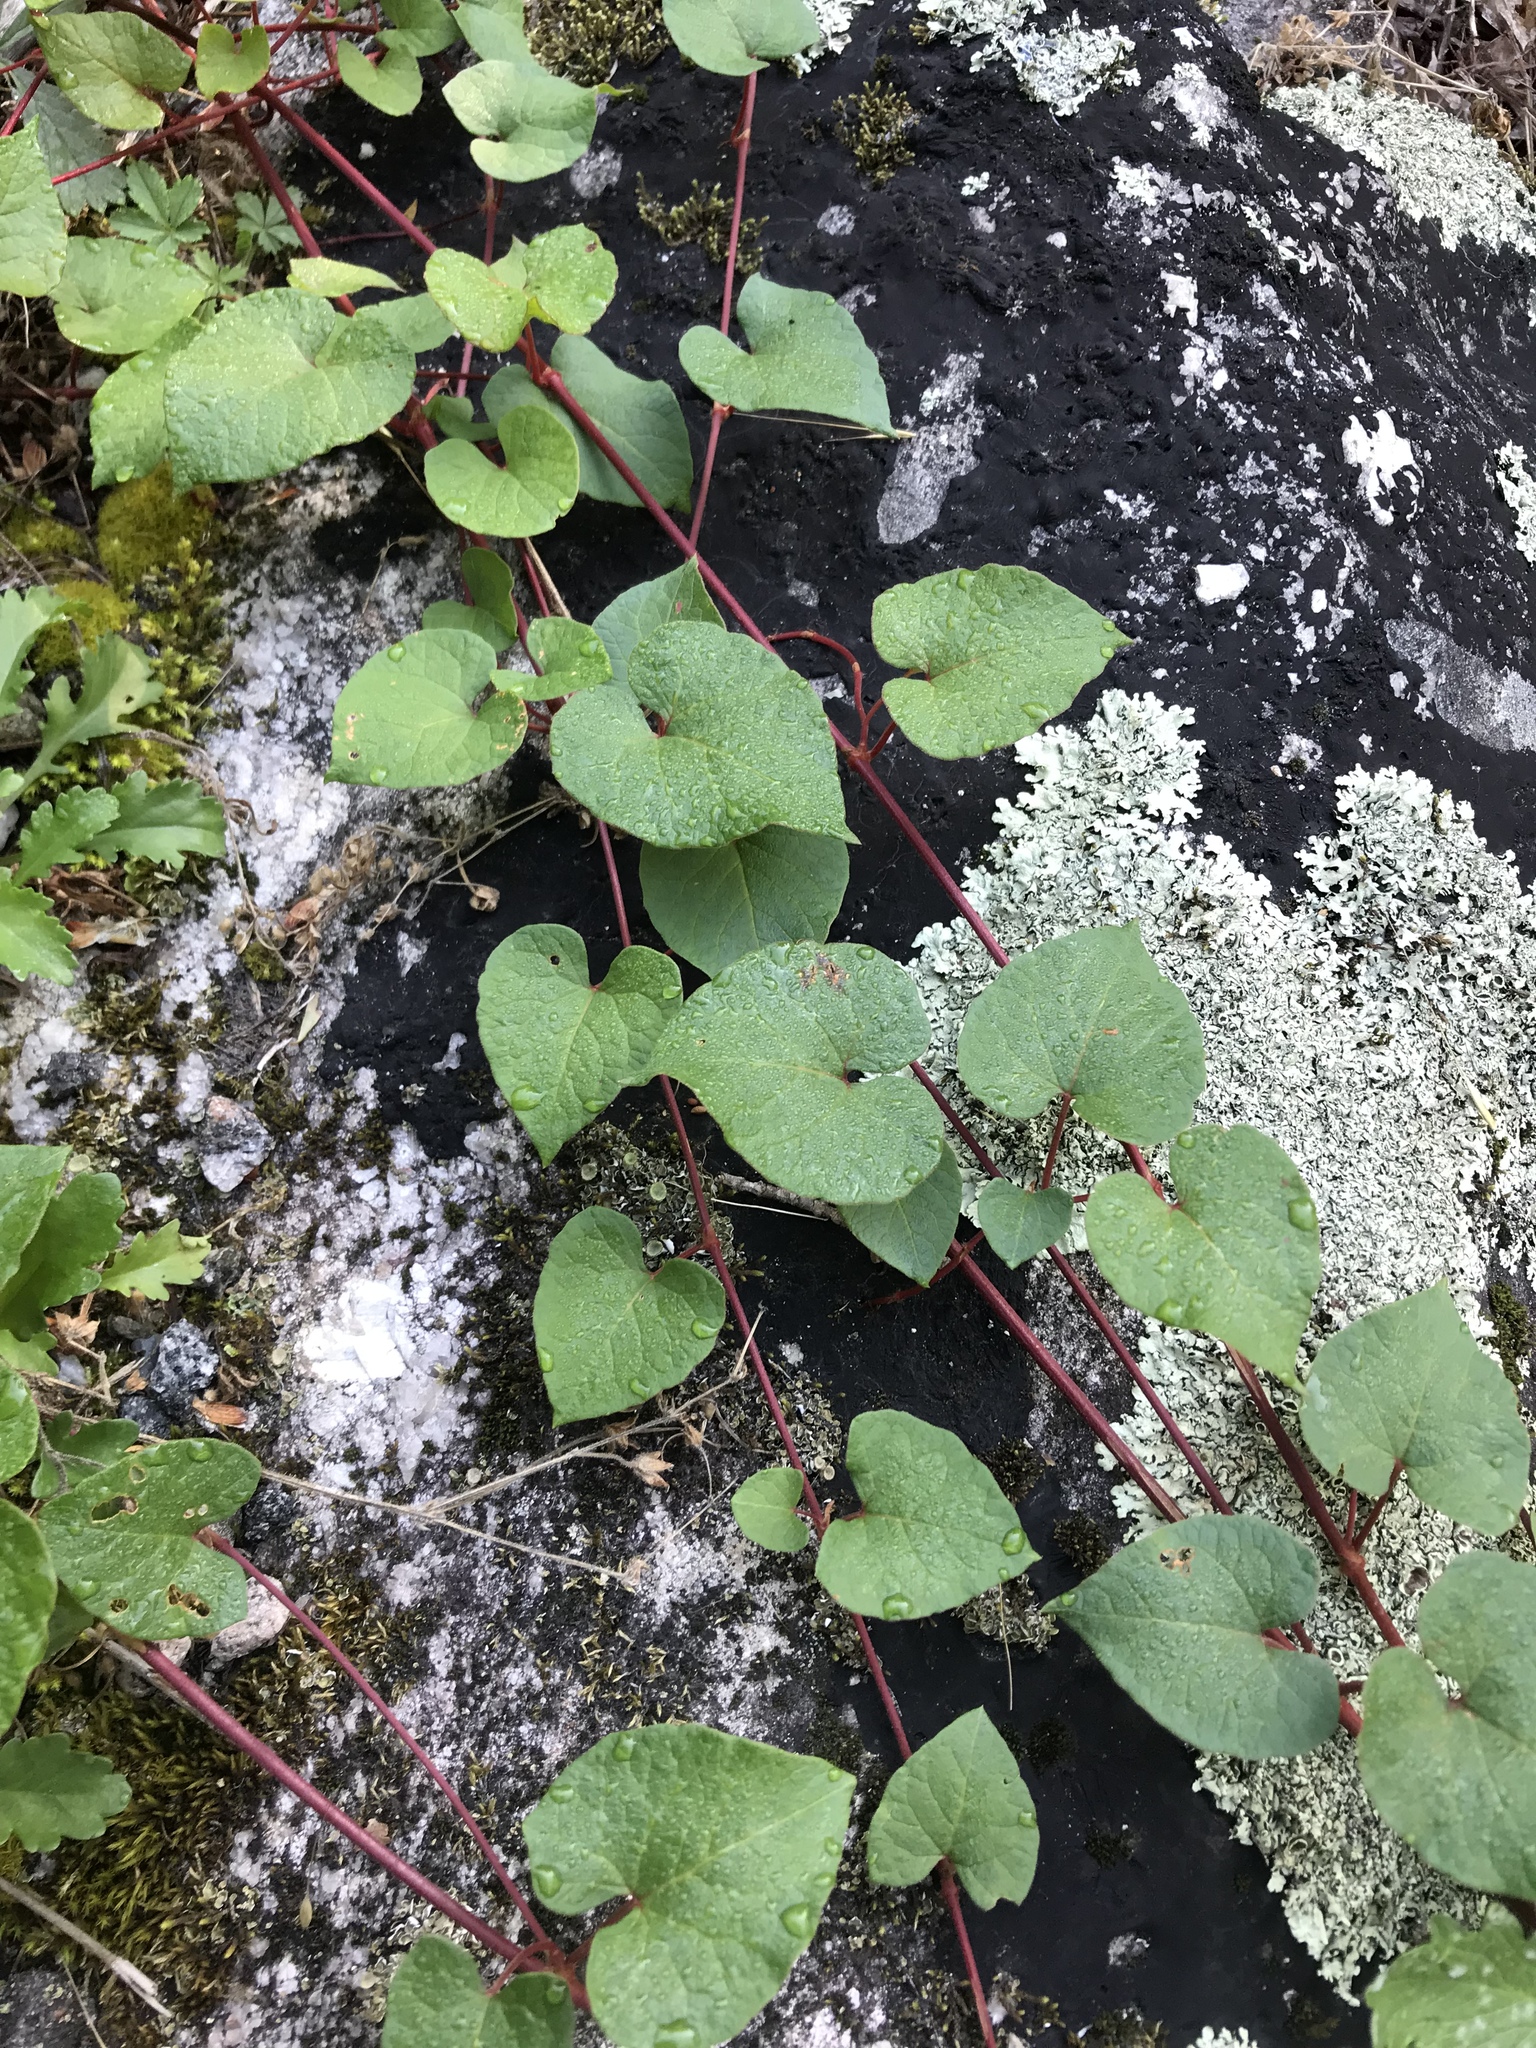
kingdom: Plantae
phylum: Tracheophyta
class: Magnoliopsida
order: Caryophyllales
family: Polygonaceae
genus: Parogonum
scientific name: Parogonum ciliinode
